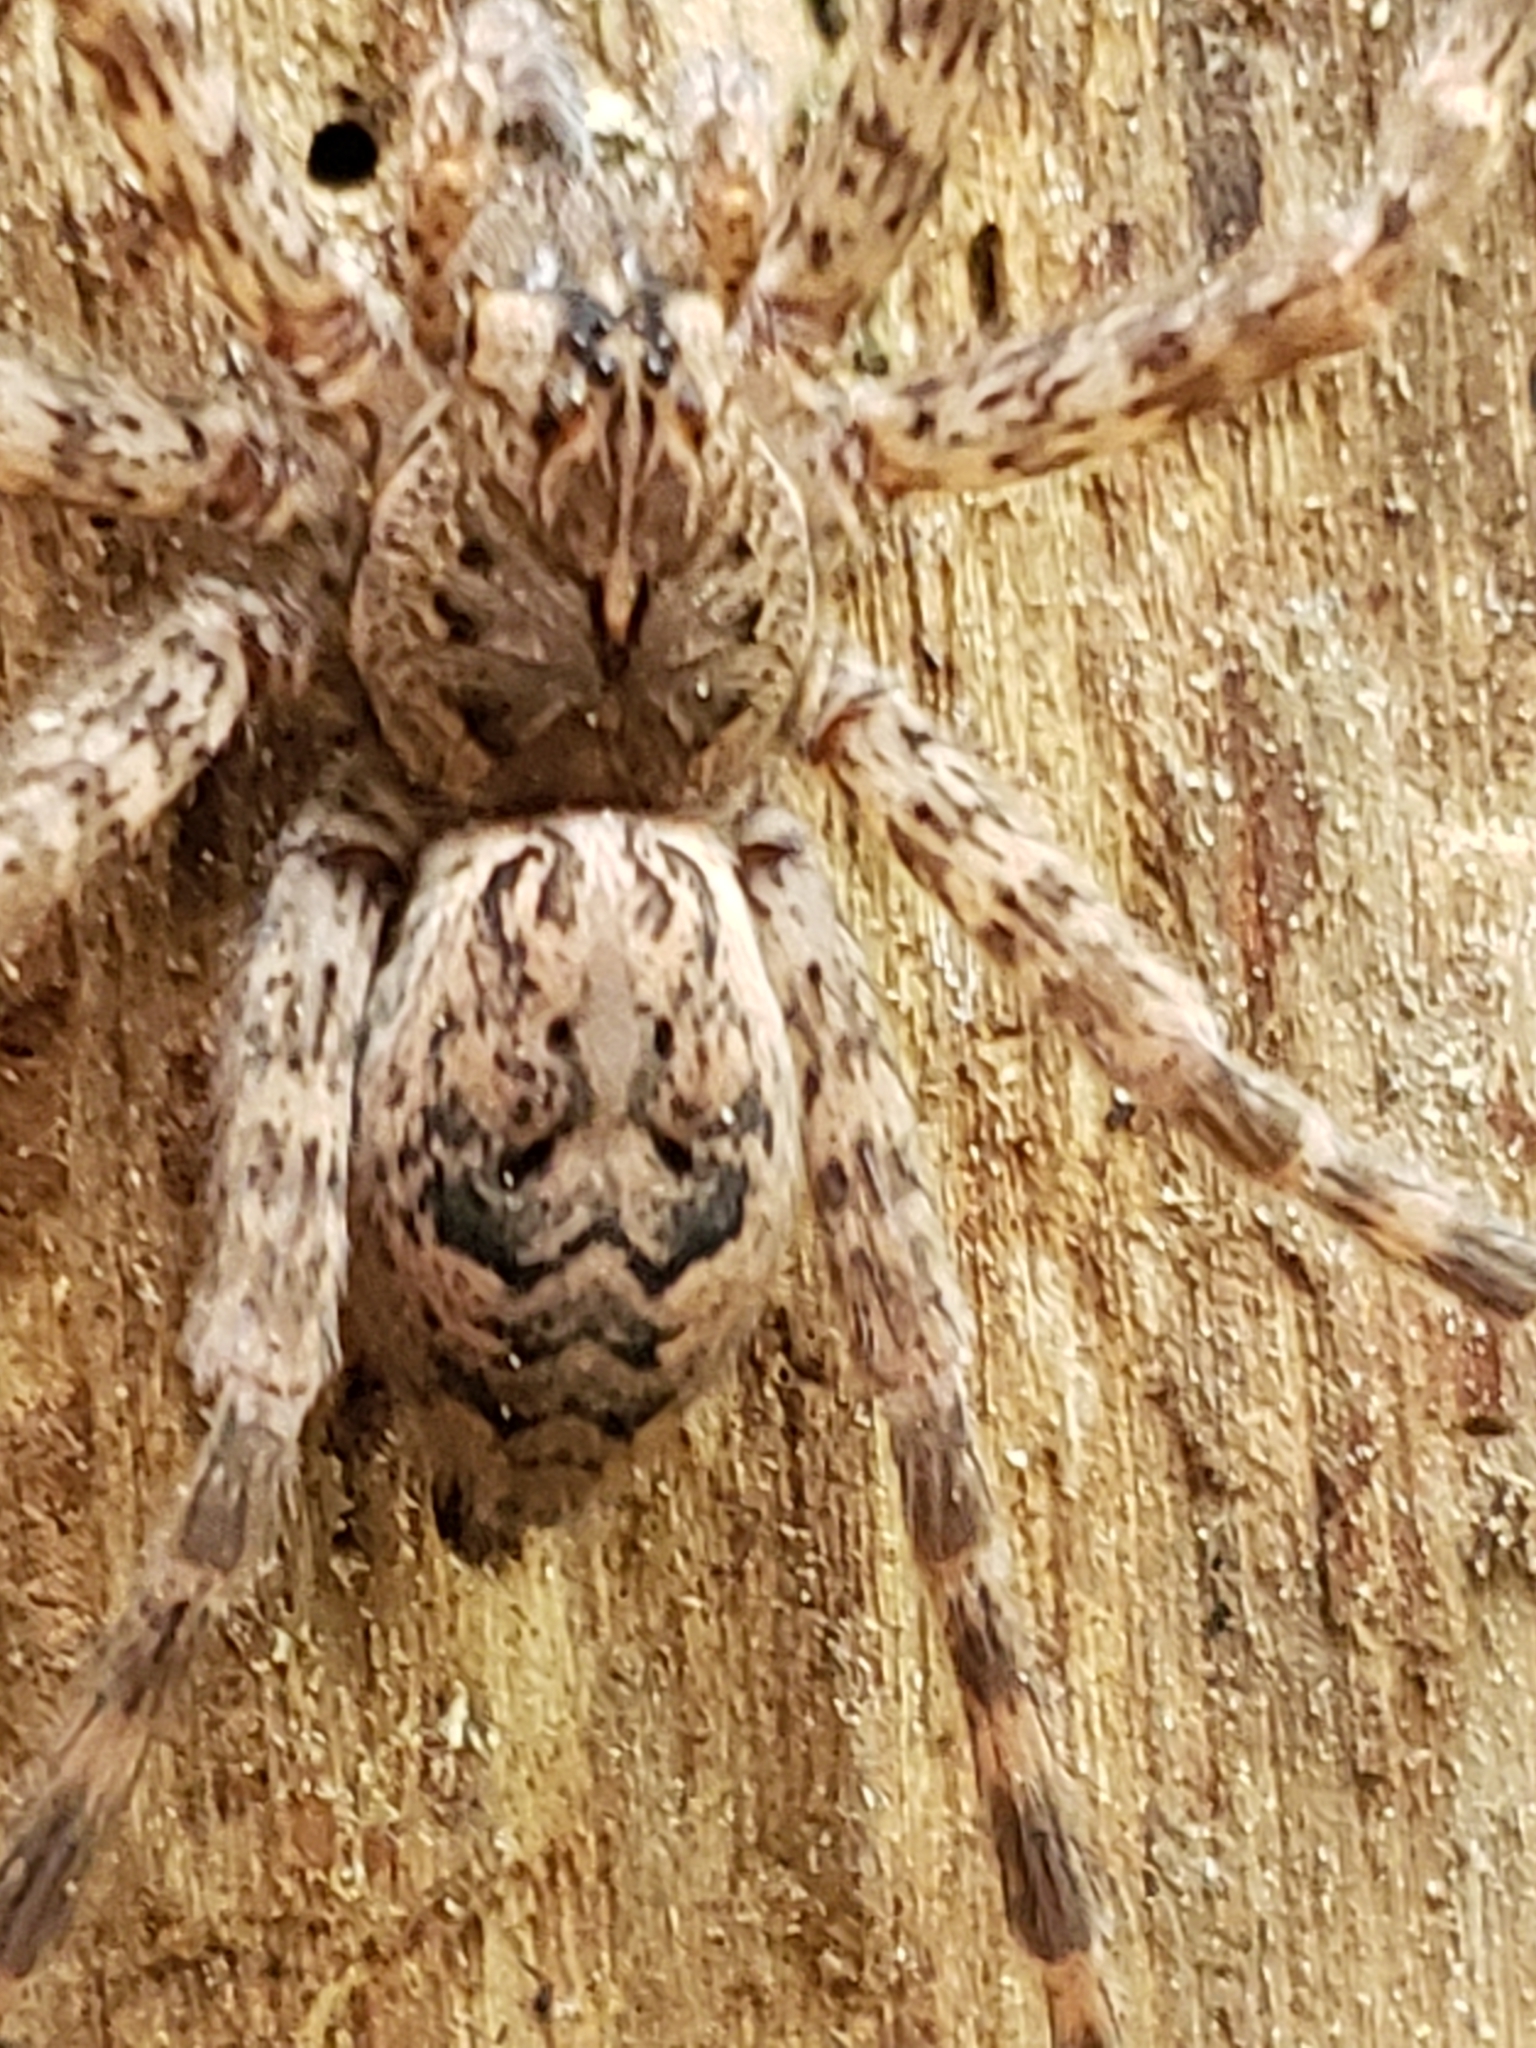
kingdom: Animalia
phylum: Arthropoda
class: Arachnida
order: Araneae
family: Pisauridae
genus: Dolomedes
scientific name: Dolomedes tenebrosus
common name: Dark fishing spider
